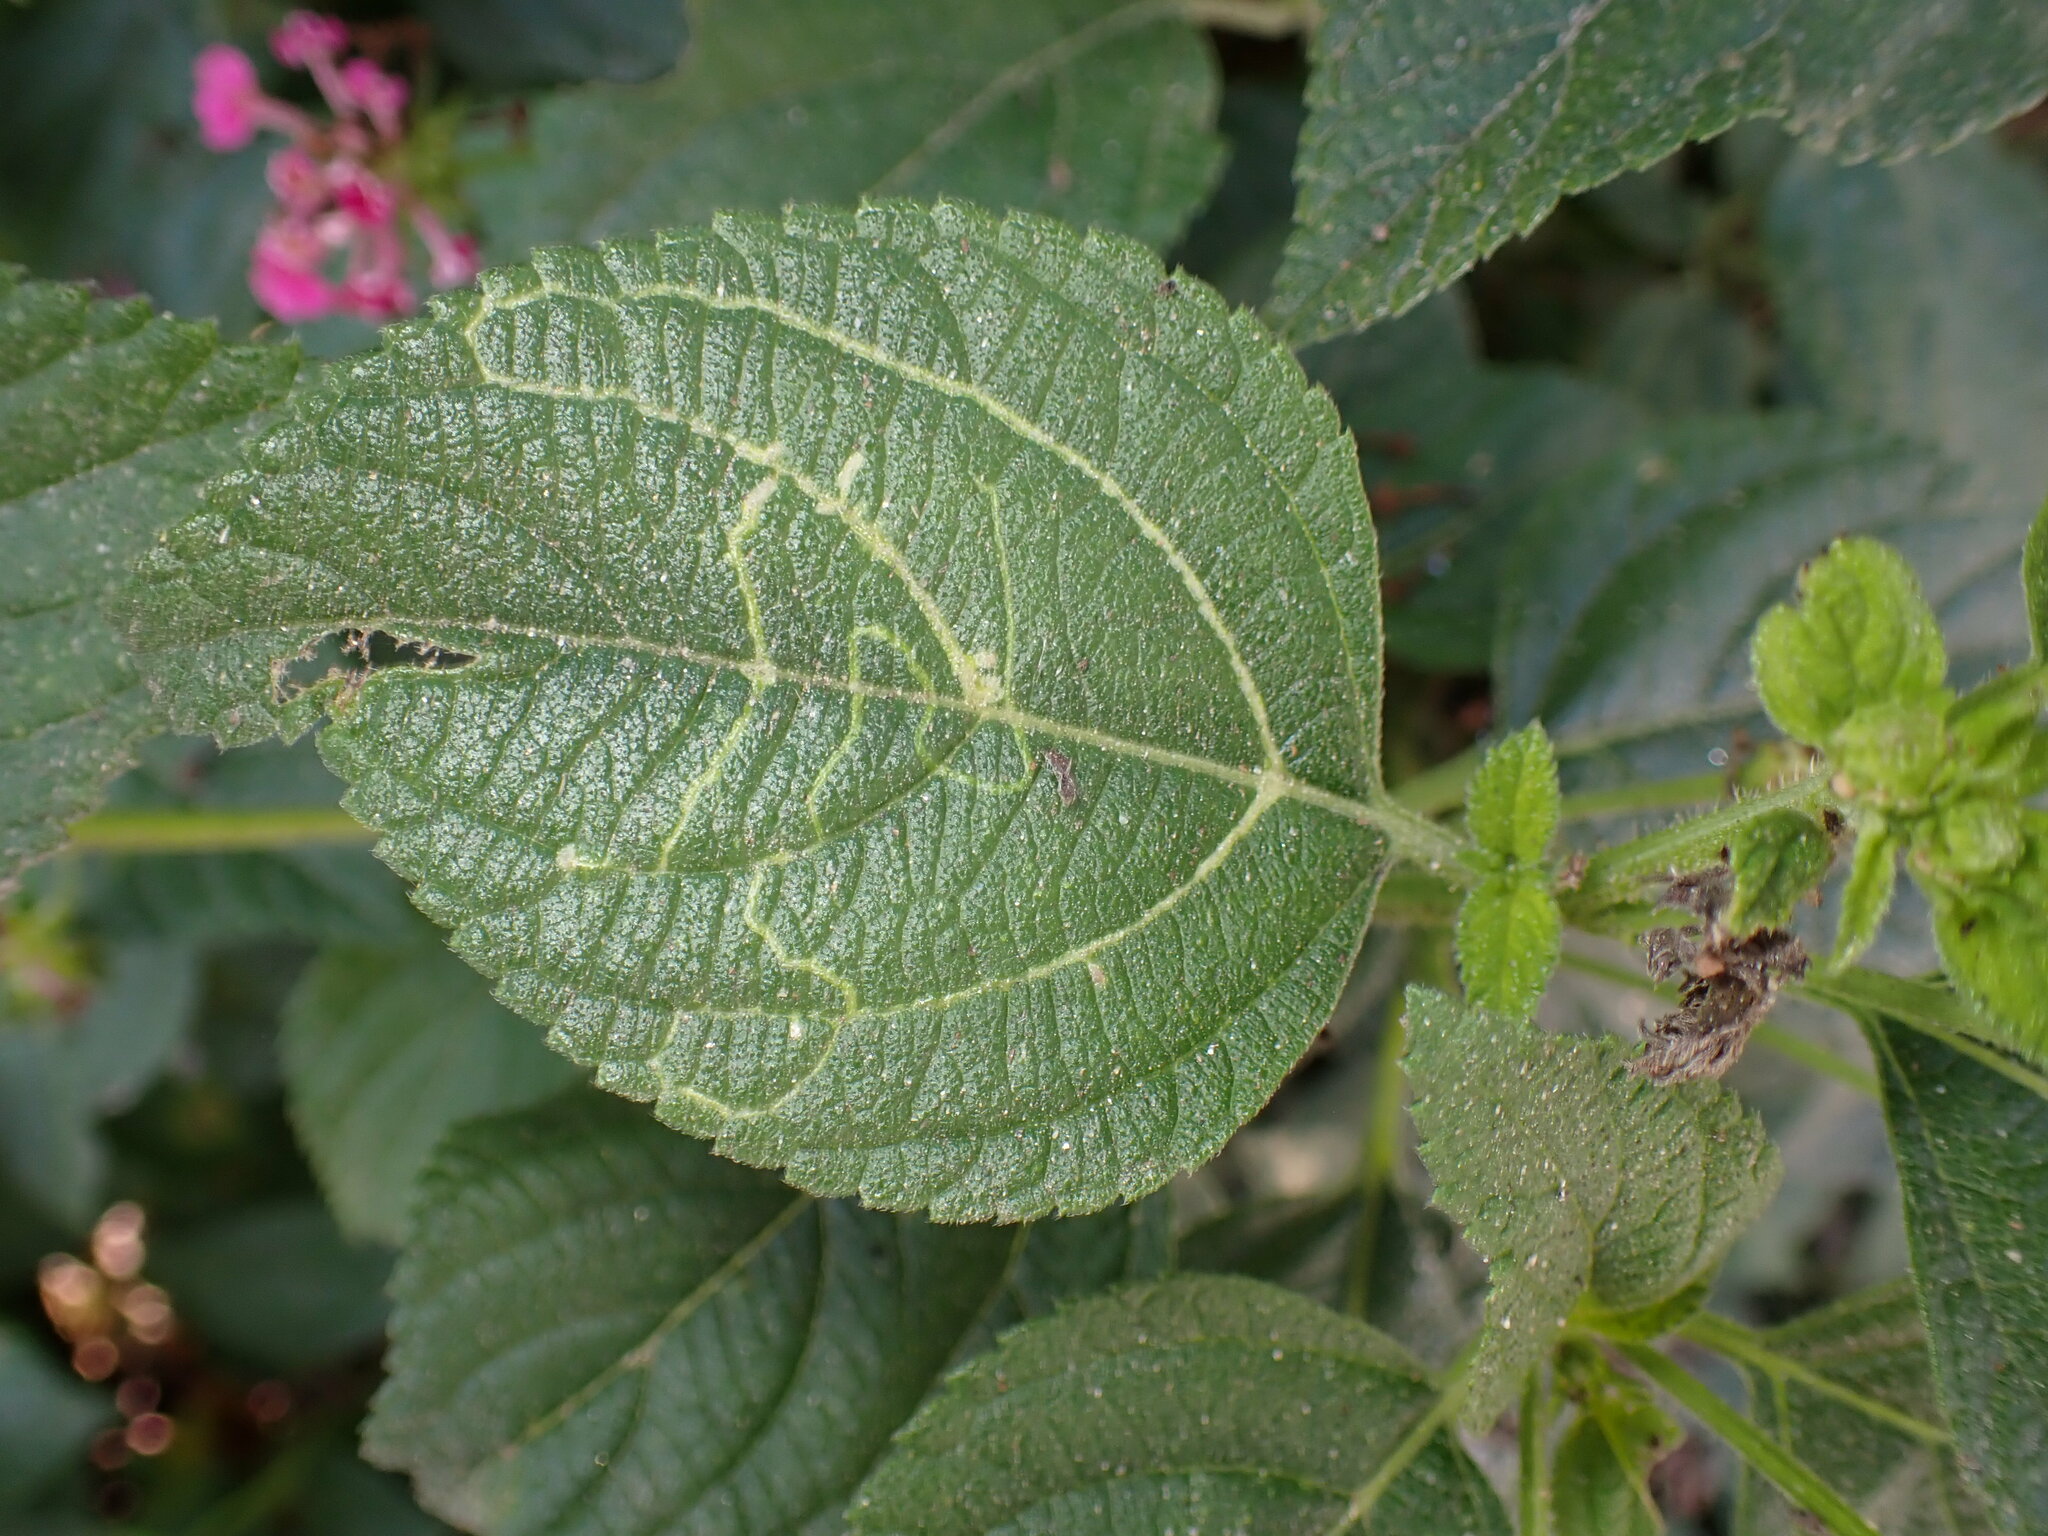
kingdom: Animalia
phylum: Arthropoda
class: Insecta
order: Diptera
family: Agromyzidae
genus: Ophiomyia
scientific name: Ophiomyia camarae
